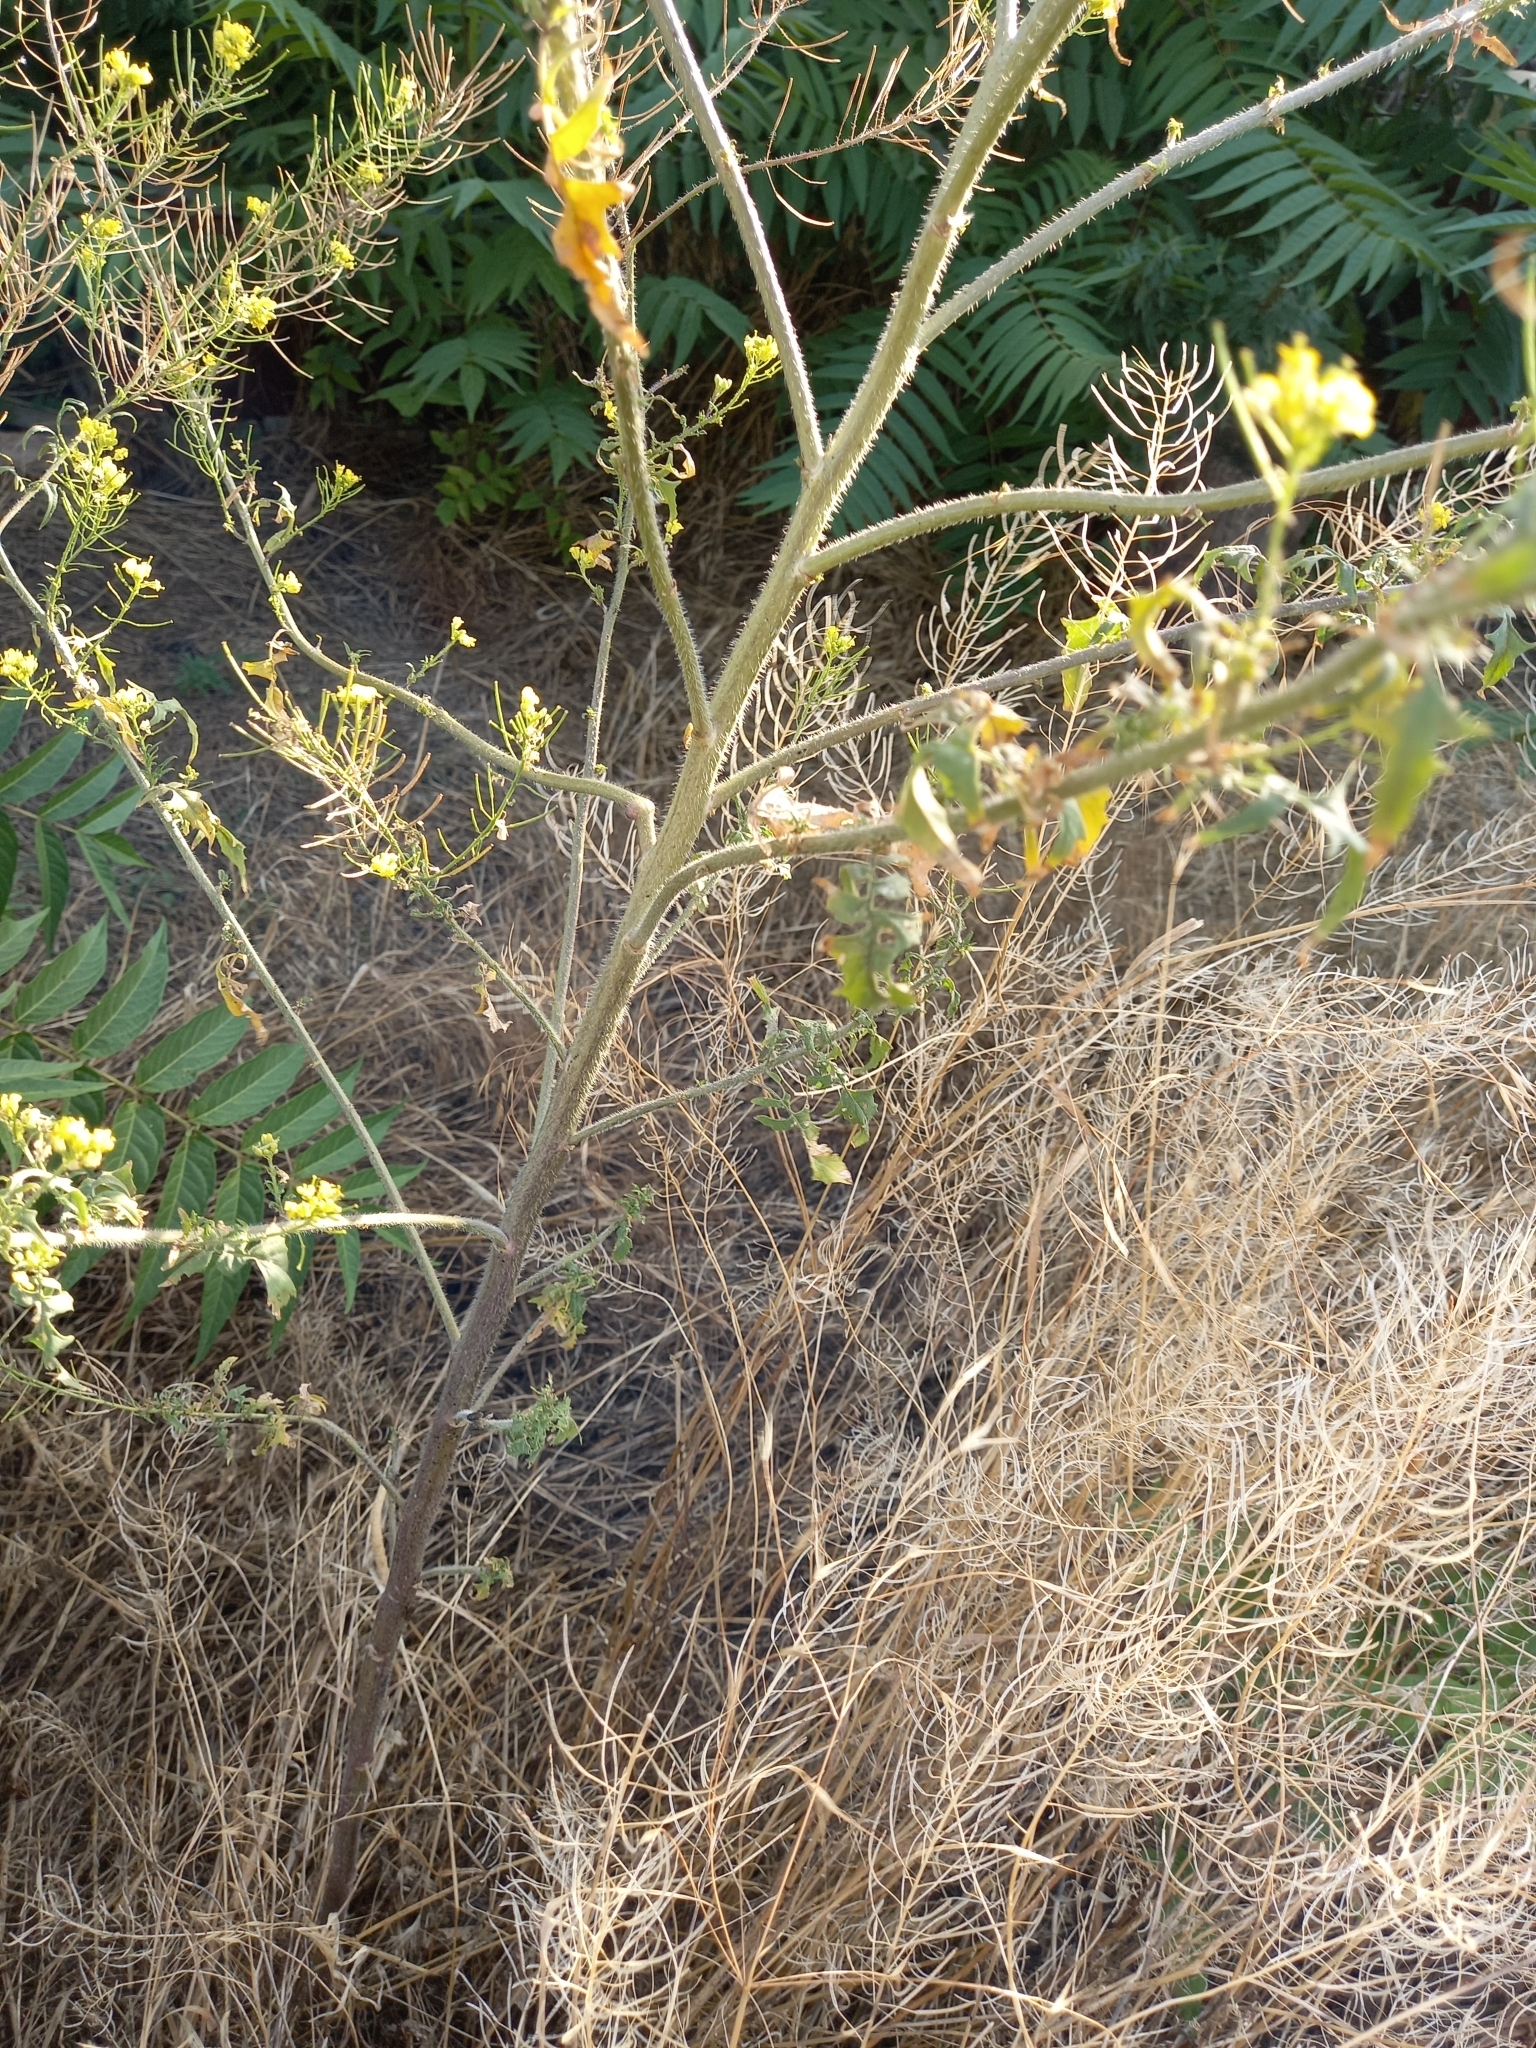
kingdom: Plantae
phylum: Tracheophyta
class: Magnoliopsida
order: Brassicales
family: Brassicaceae
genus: Sisymbrium
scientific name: Sisymbrium loeselii
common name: False london-rocket
